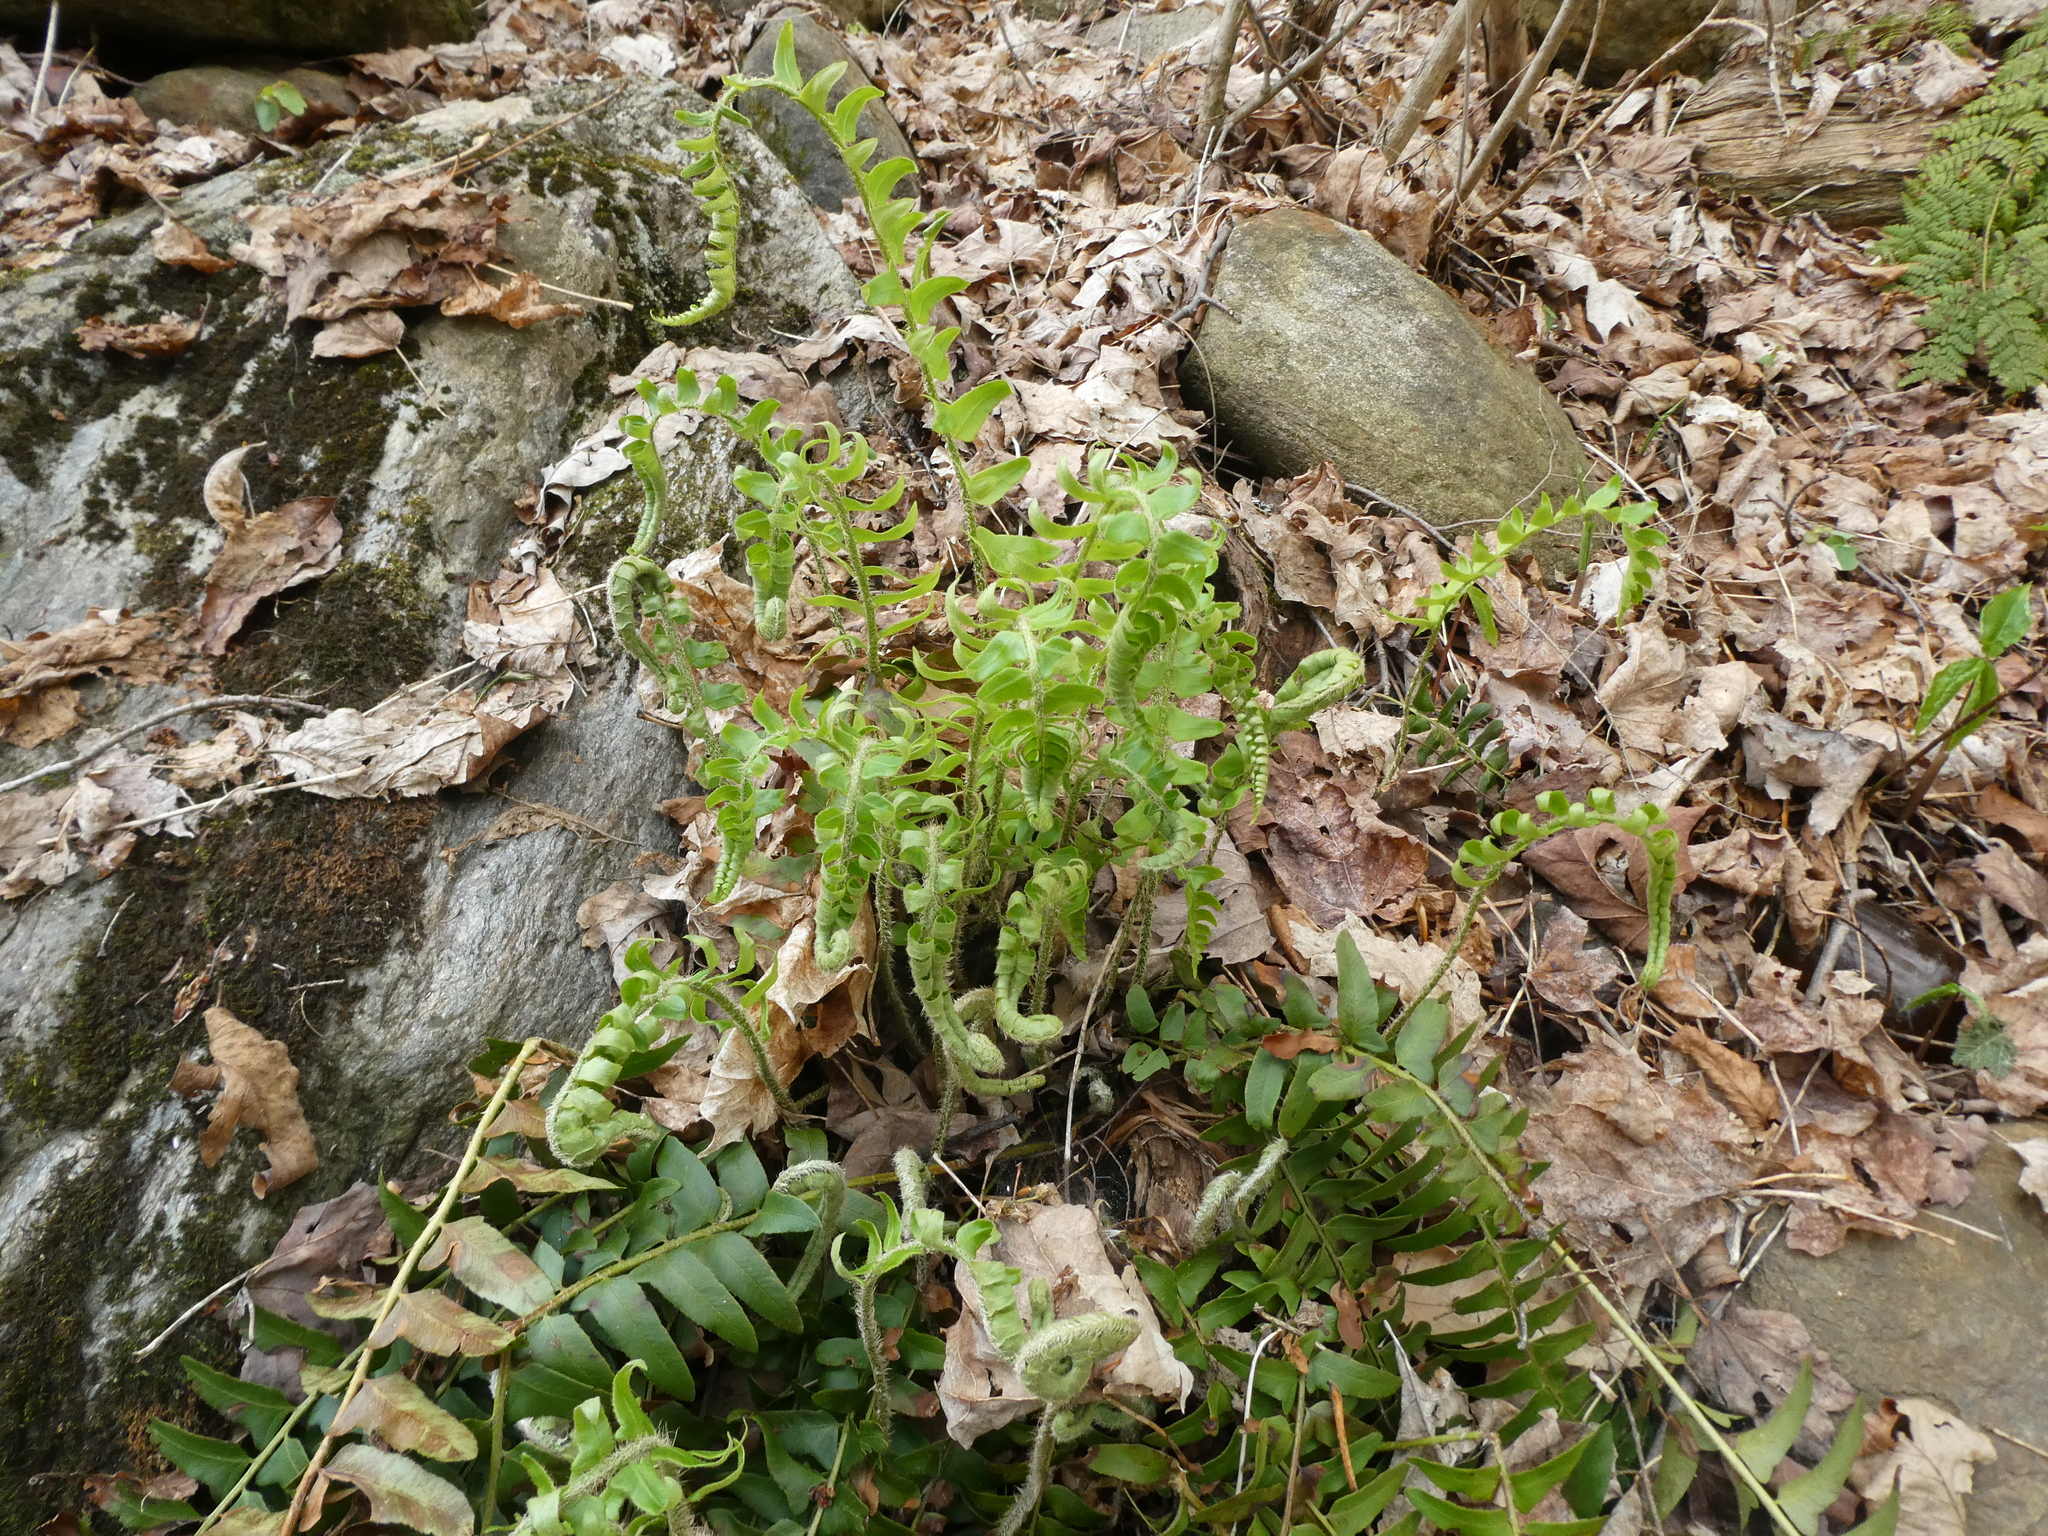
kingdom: Plantae
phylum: Tracheophyta
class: Polypodiopsida
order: Polypodiales
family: Dryopteridaceae
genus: Polystichum
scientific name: Polystichum acrostichoides
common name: Christmas fern
